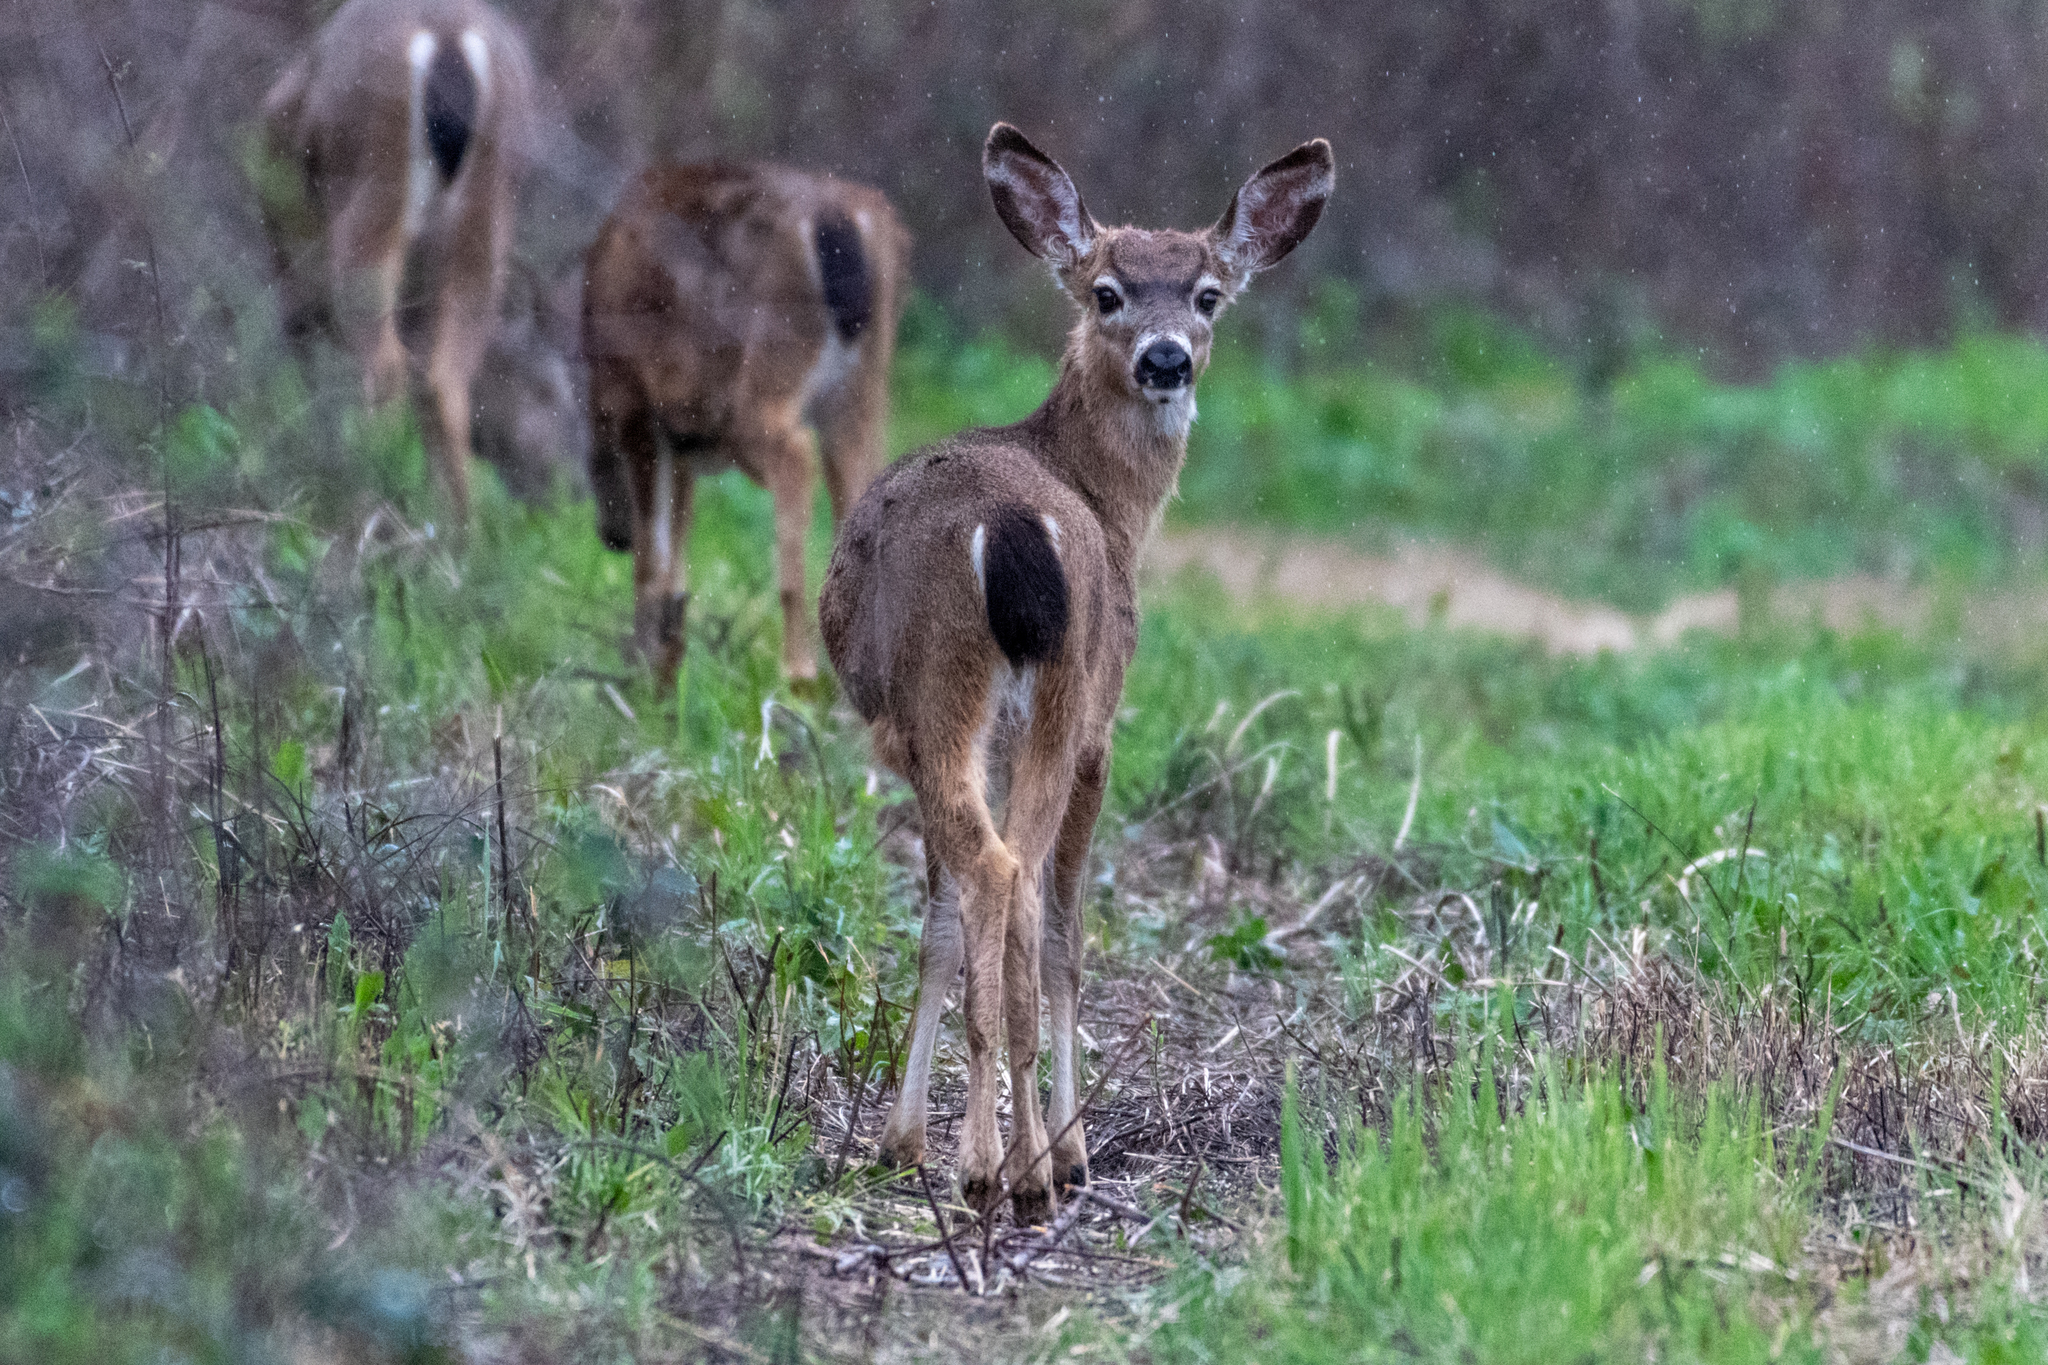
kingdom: Animalia
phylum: Chordata
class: Mammalia
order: Artiodactyla
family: Cervidae
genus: Odocoileus
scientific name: Odocoileus hemionus
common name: Mule deer
